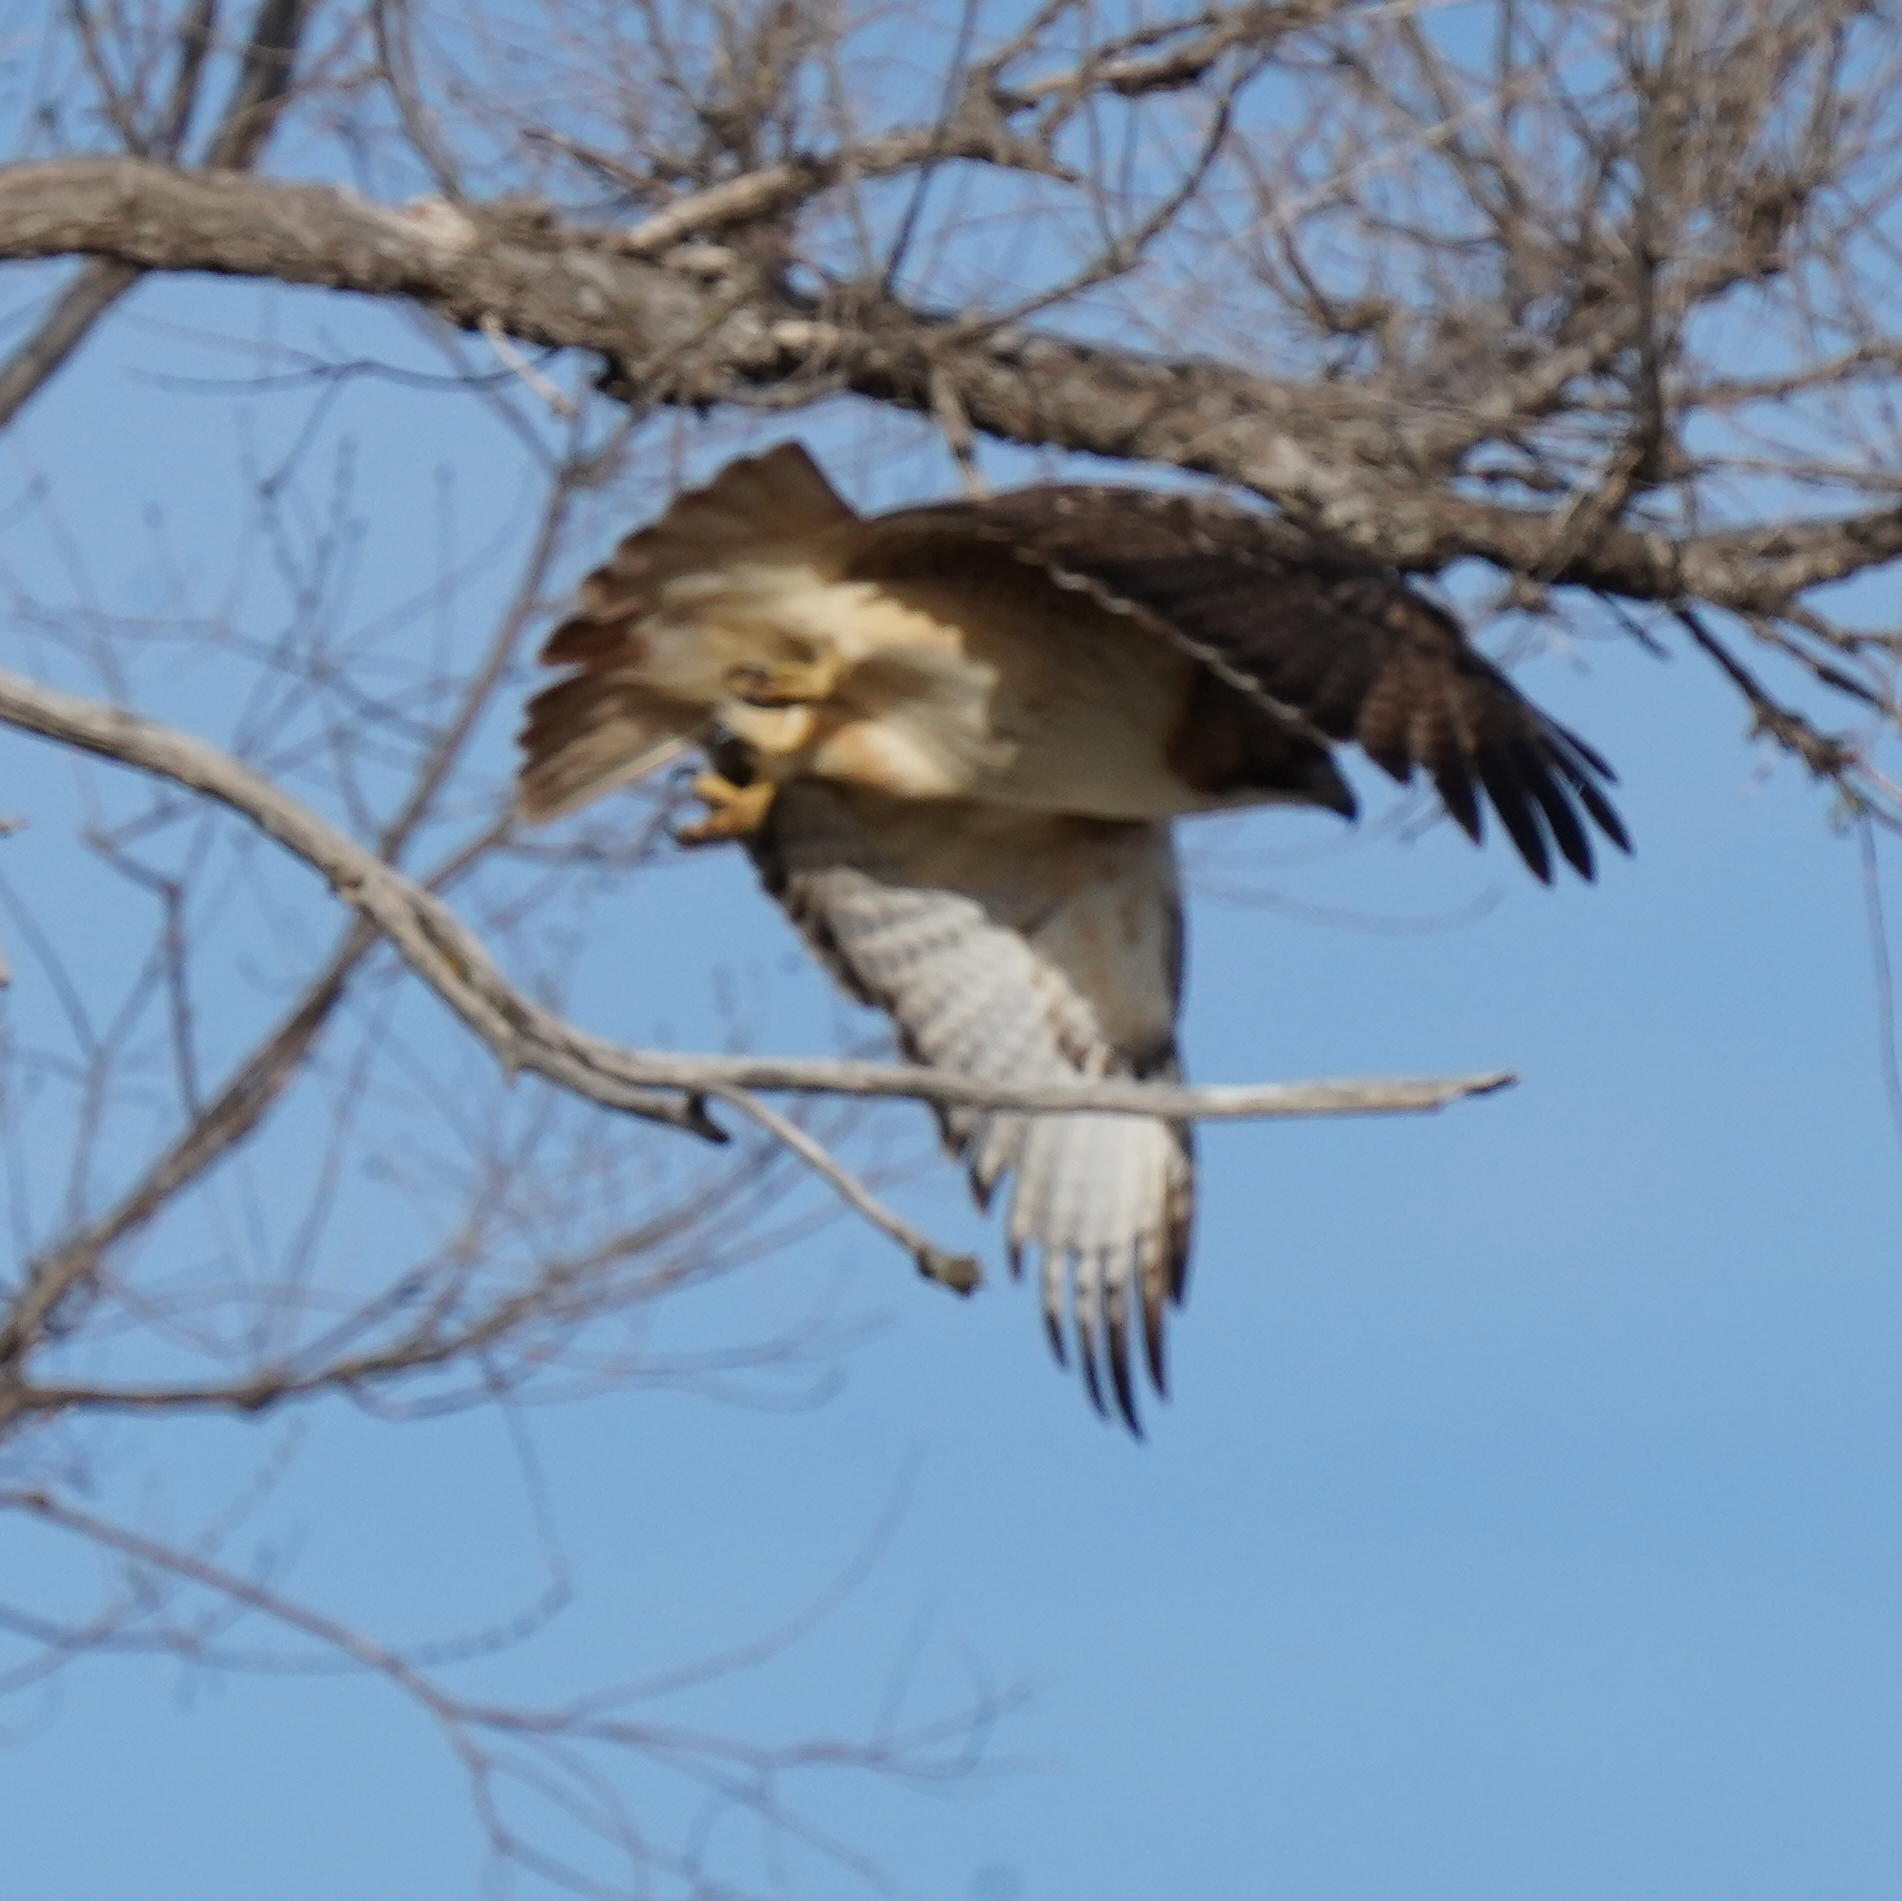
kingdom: Animalia
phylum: Chordata
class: Aves
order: Accipitriformes
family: Accipitridae
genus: Buteo
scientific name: Buteo swainsoni
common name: Swainson's hawk
